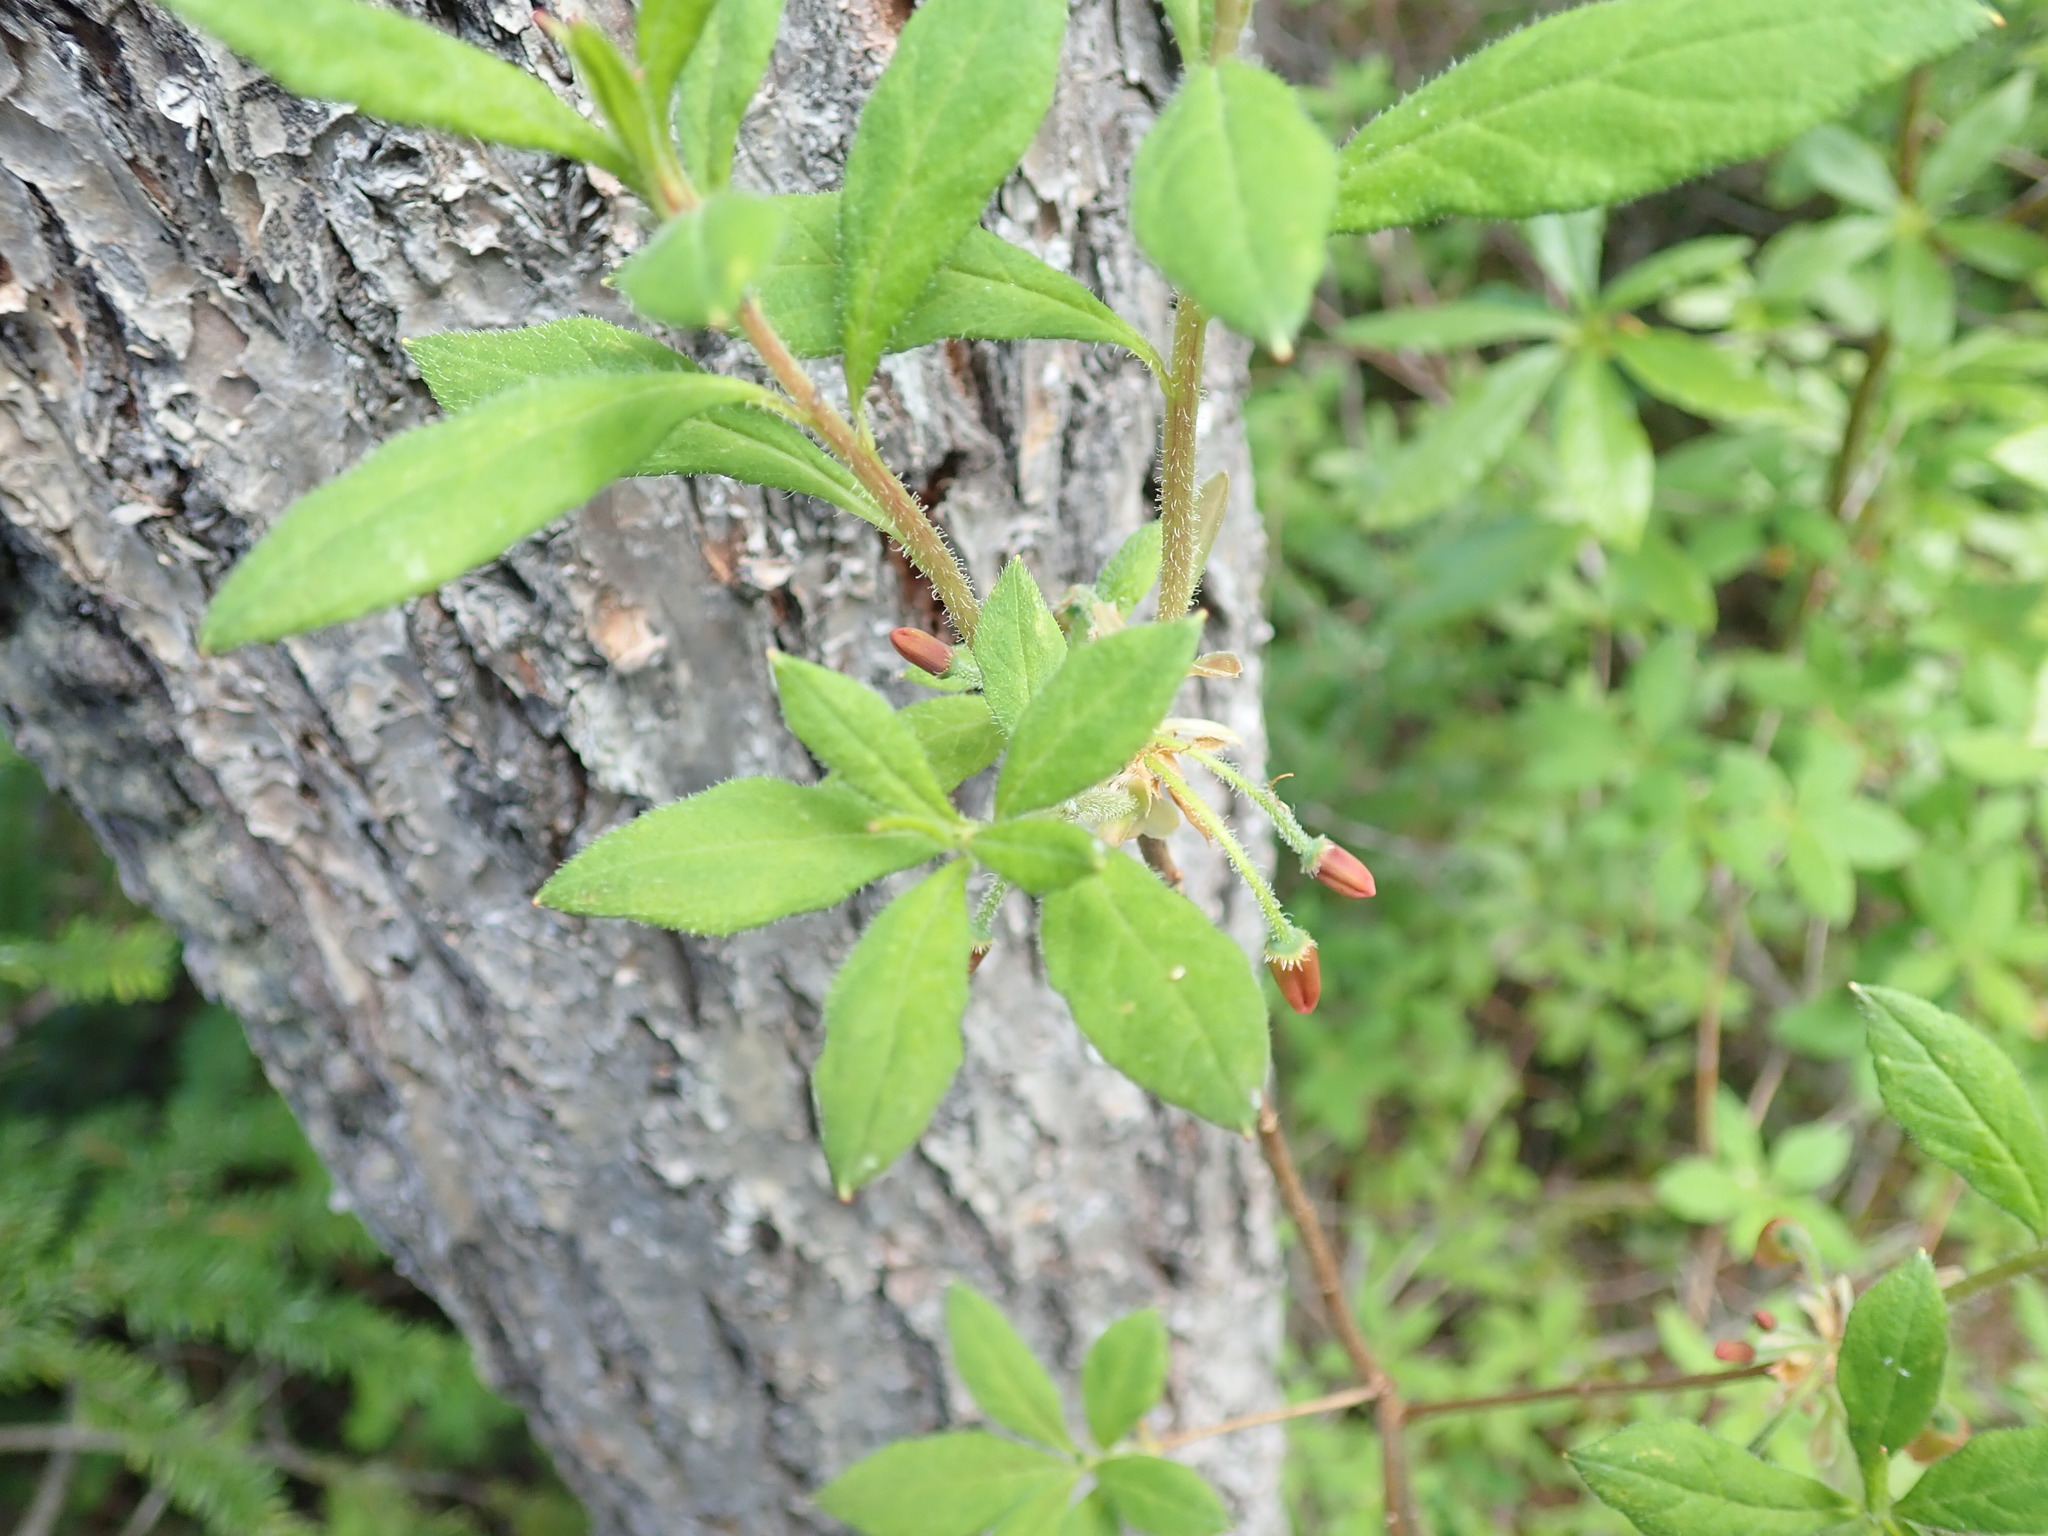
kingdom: Plantae
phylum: Tracheophyta
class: Magnoliopsida
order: Ericales
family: Ericaceae
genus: Rhododendron
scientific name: Rhododendron menziesii
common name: Pacific menziesia
